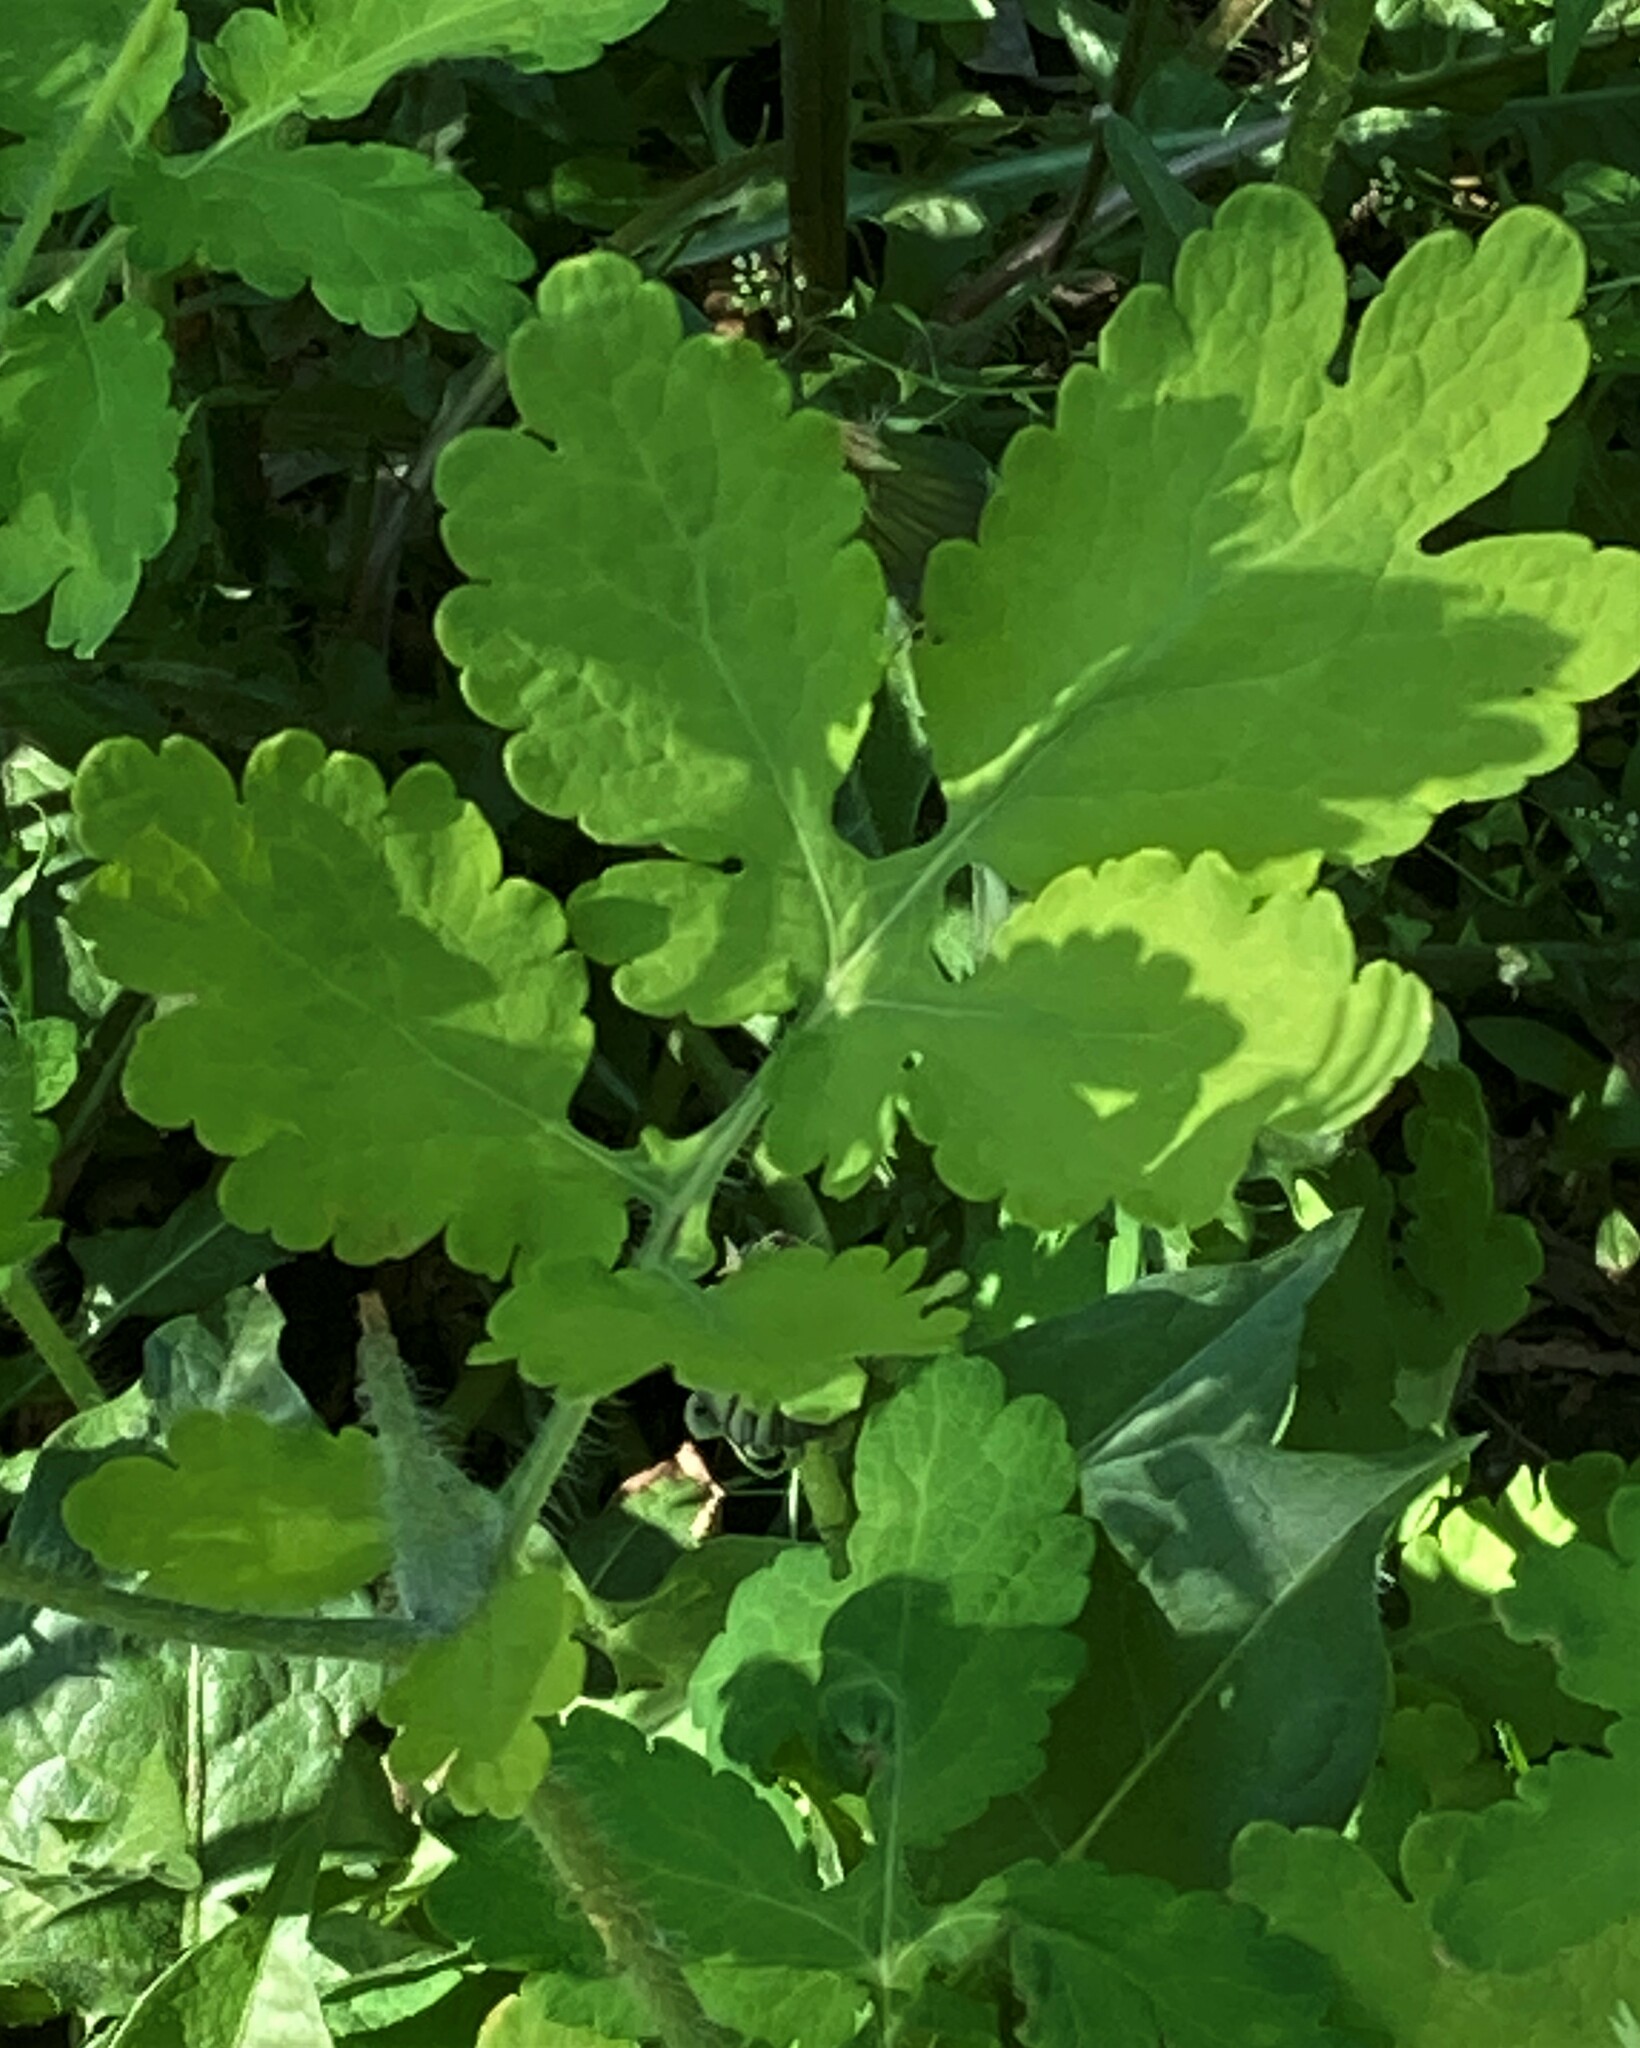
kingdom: Plantae
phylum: Tracheophyta
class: Magnoliopsida
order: Ranunculales
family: Papaveraceae
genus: Chelidonium
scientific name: Chelidonium majus
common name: Greater celandine
